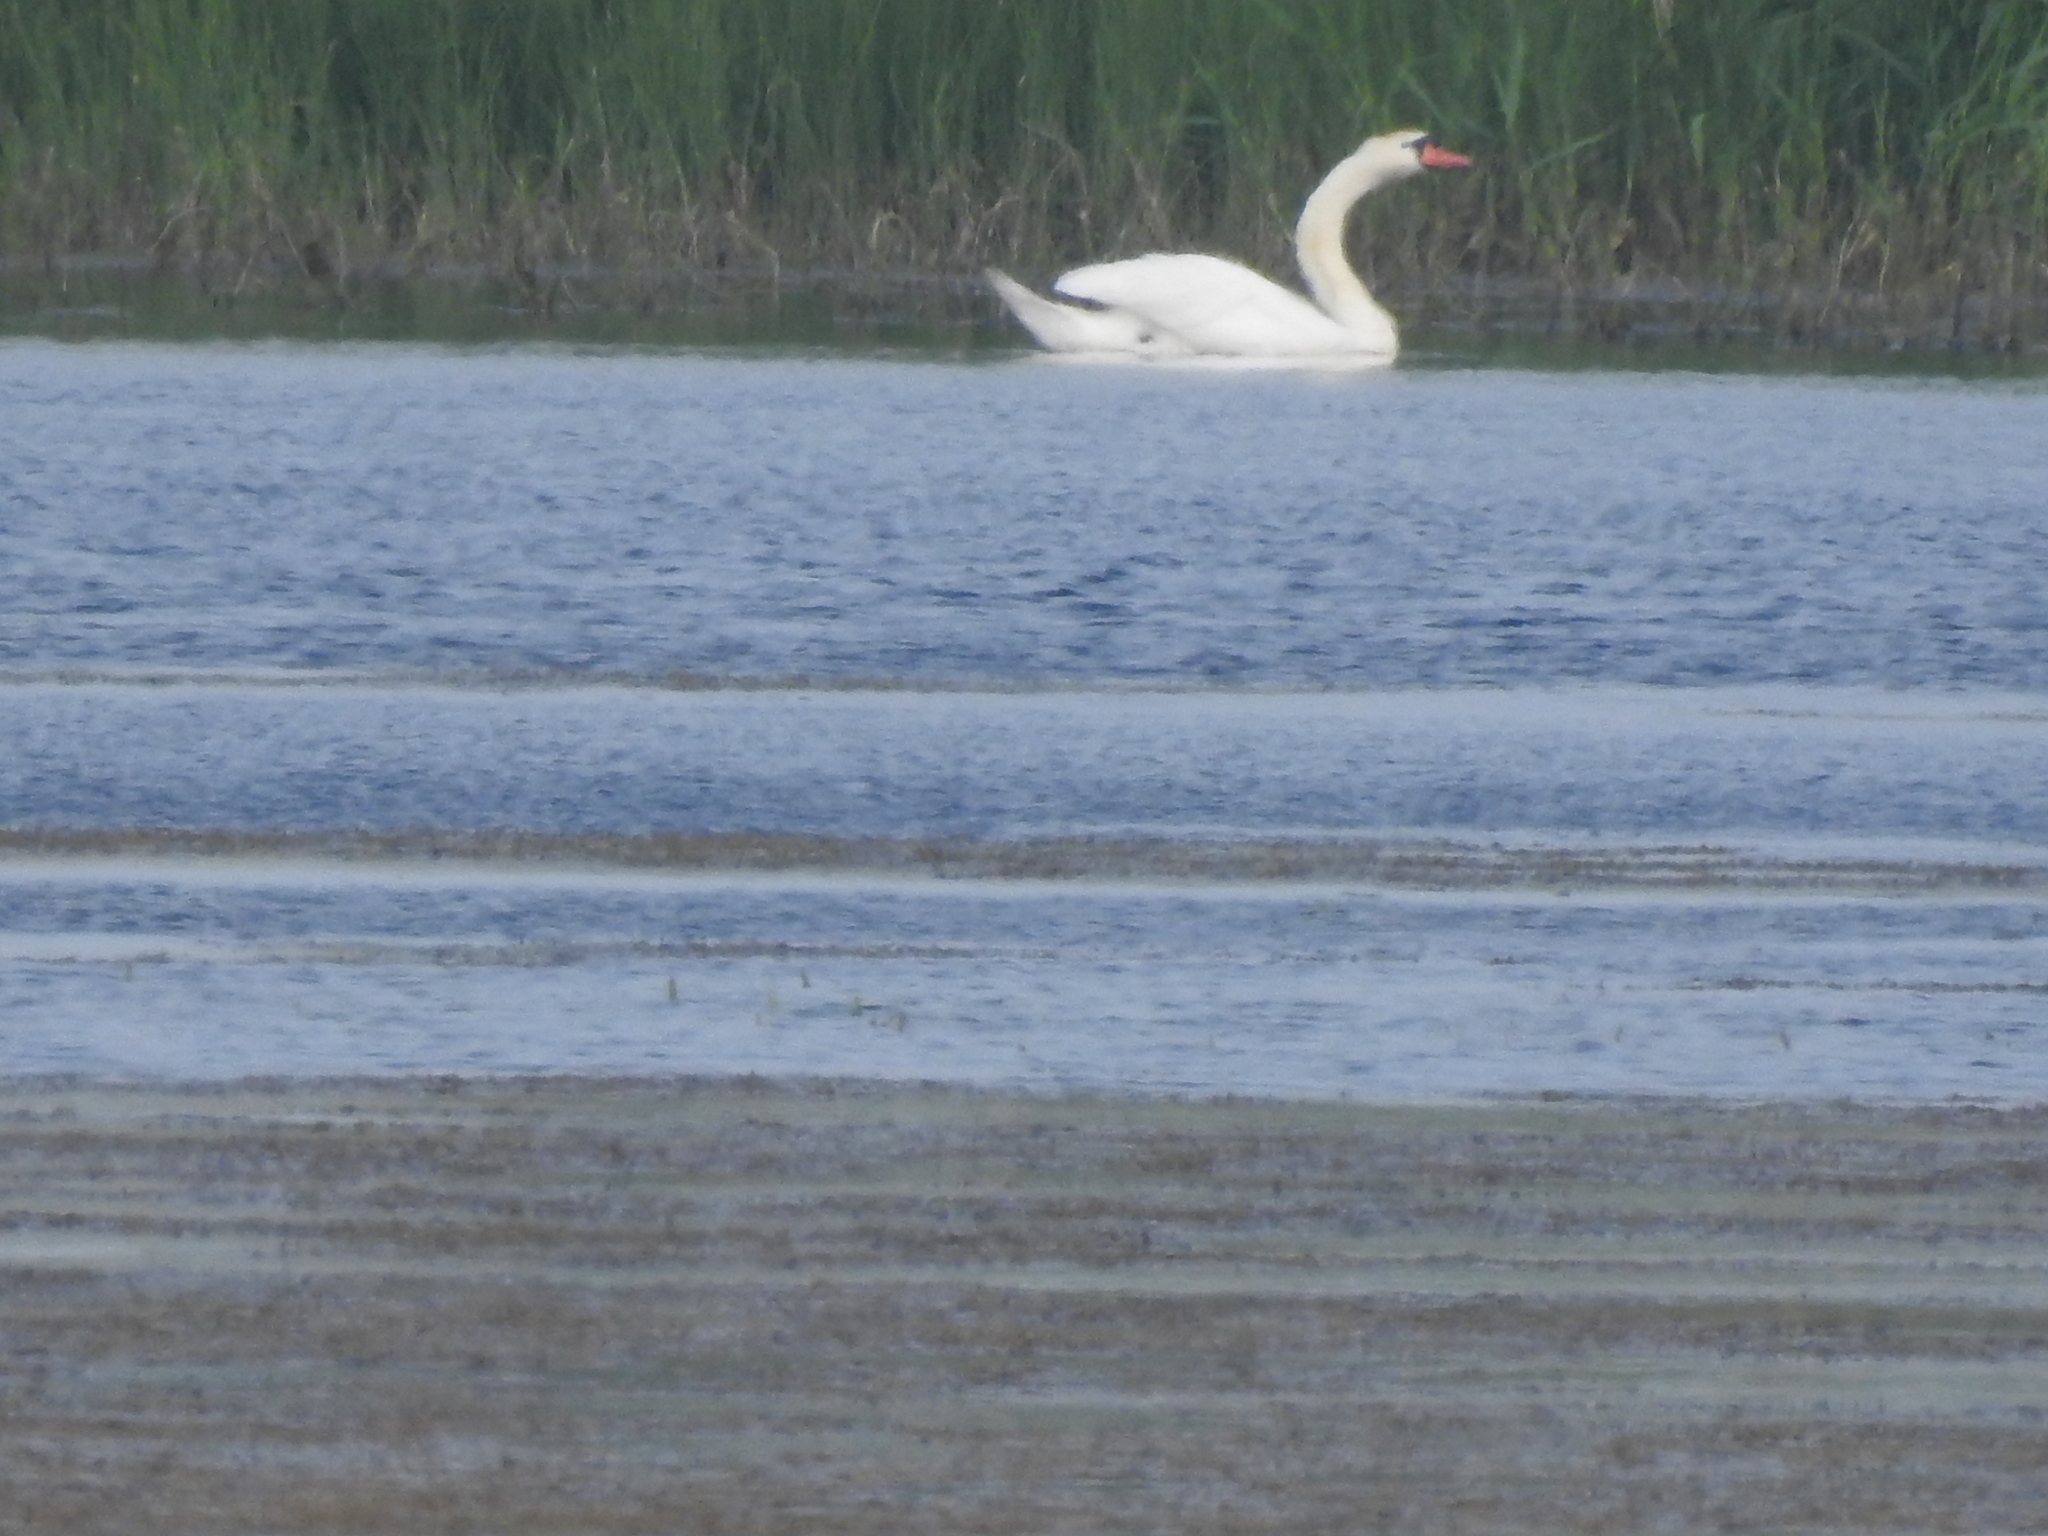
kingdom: Animalia
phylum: Chordata
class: Aves
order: Anseriformes
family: Anatidae
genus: Cygnus
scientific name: Cygnus olor
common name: Mute swan
